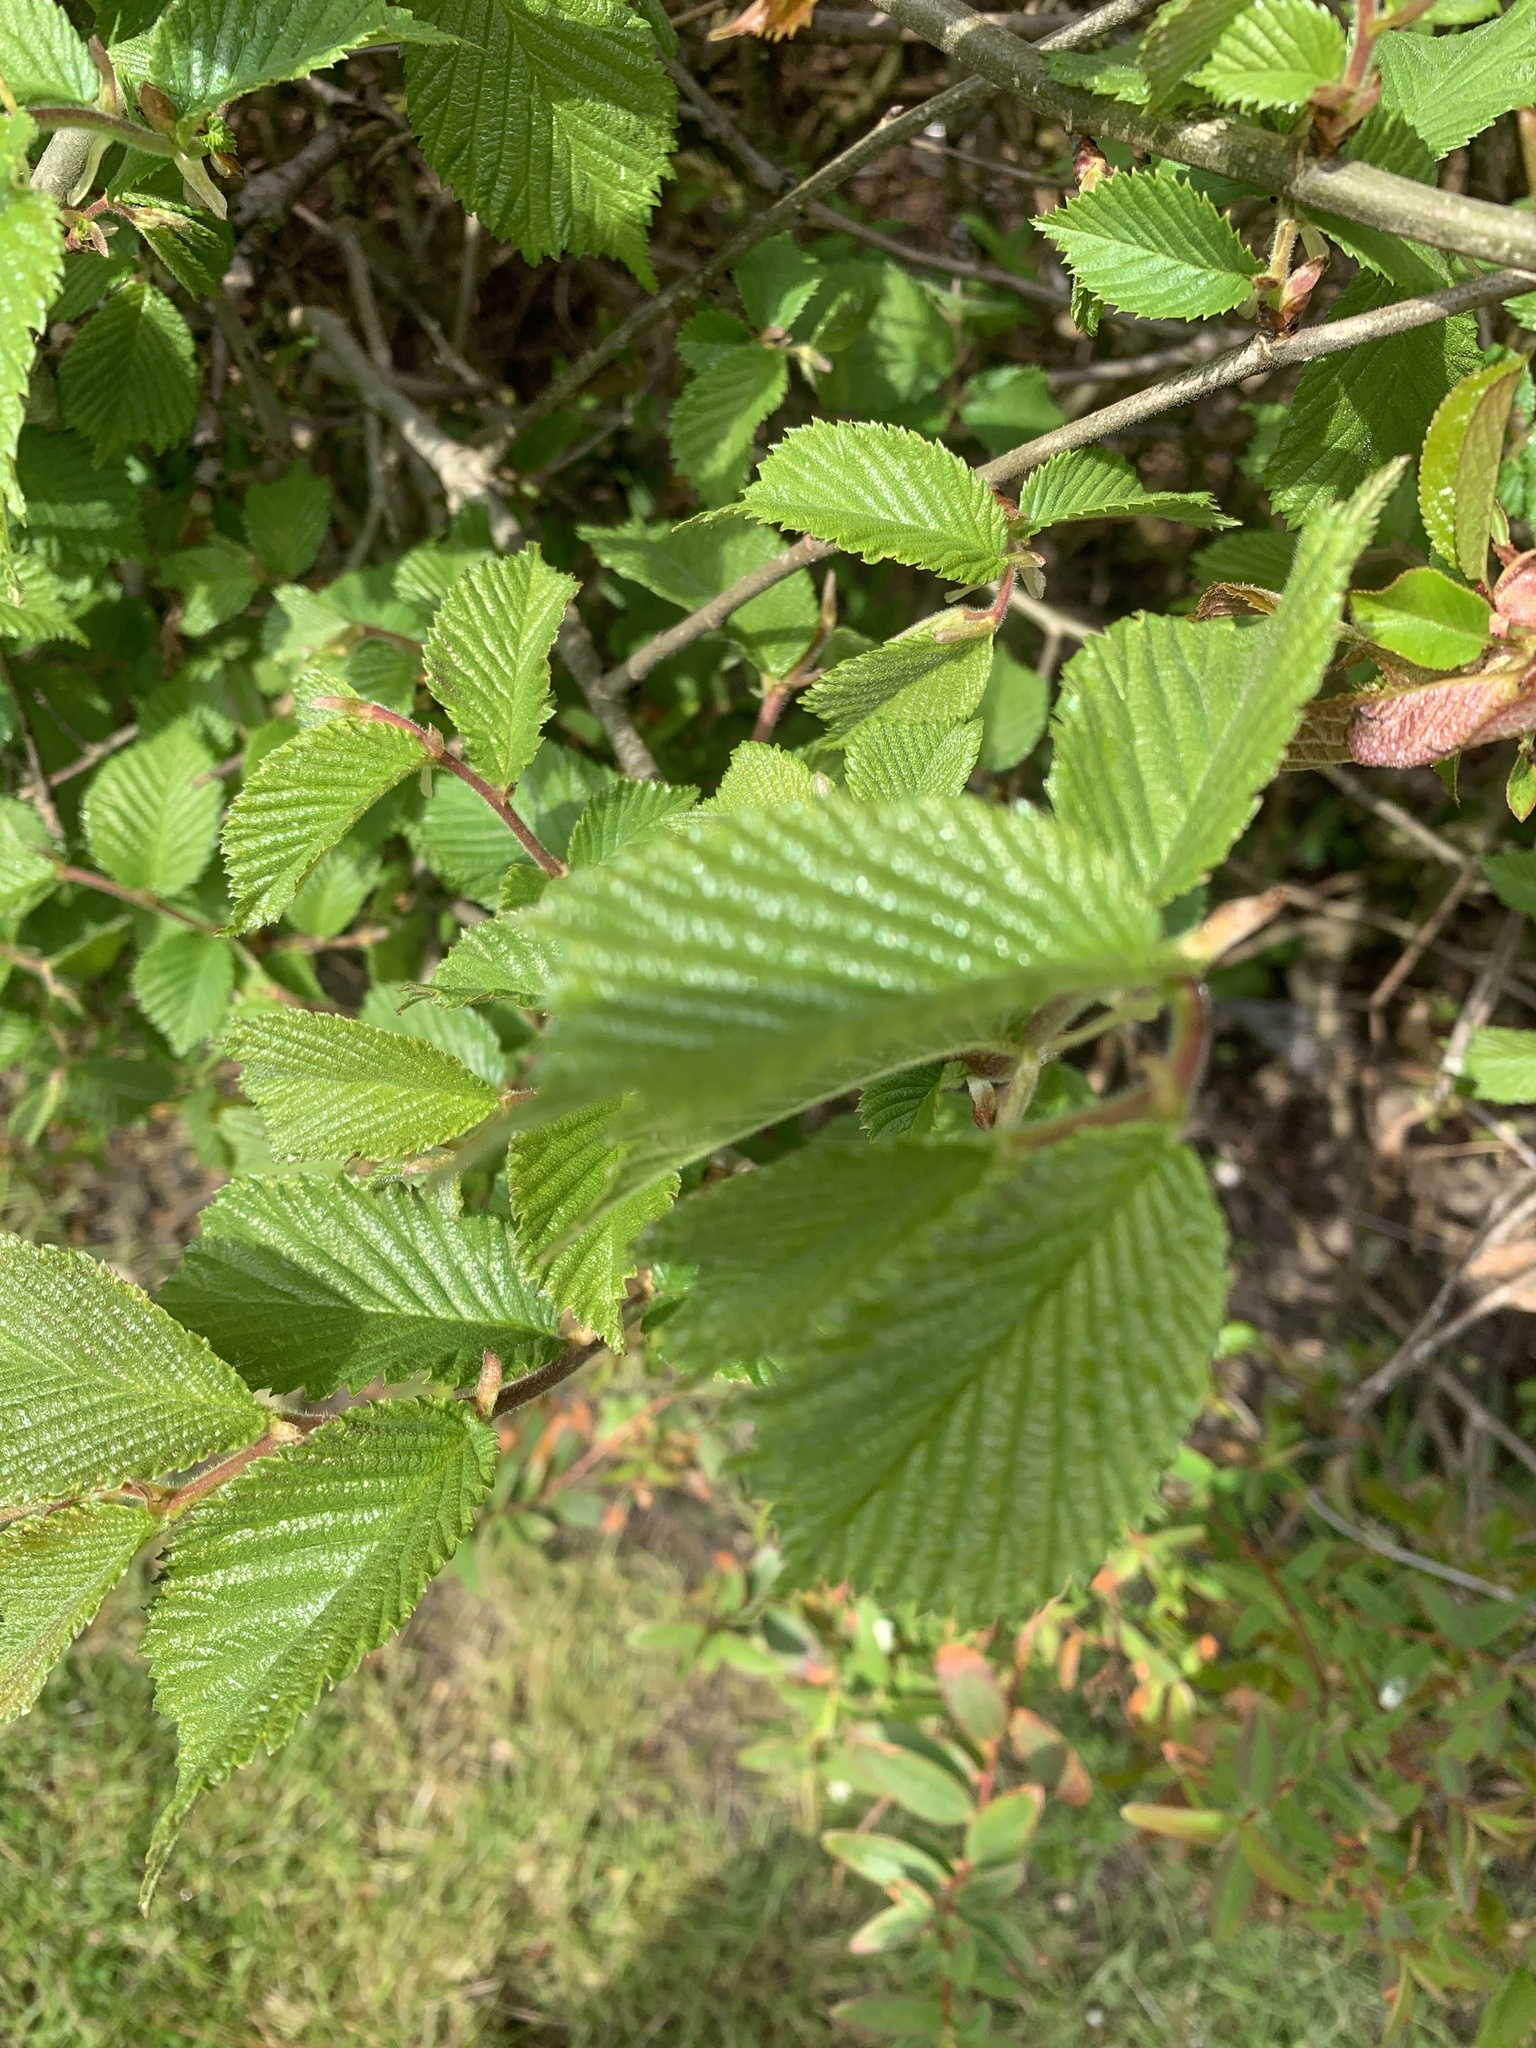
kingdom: Plantae
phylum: Tracheophyta
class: Magnoliopsida
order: Rosales
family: Ulmaceae
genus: Ulmus
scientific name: Ulmus glabra
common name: Wych elm
